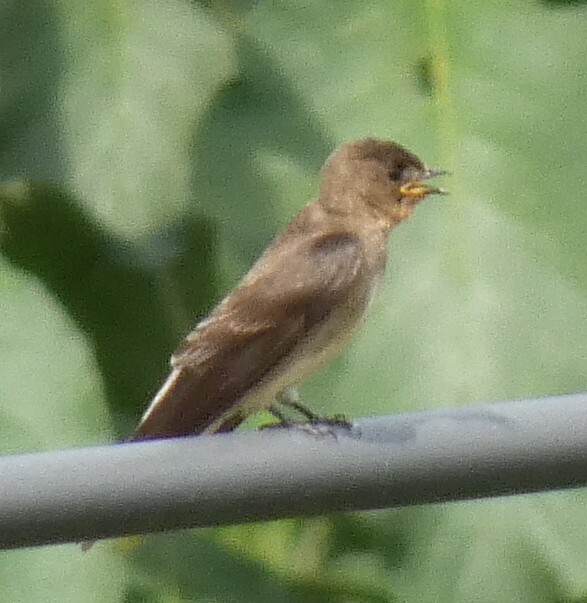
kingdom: Animalia
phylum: Chordata
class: Aves
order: Passeriformes
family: Hirundinidae
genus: Stelgidopteryx
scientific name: Stelgidopteryx ruficollis
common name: Southern rough-winged swallow
